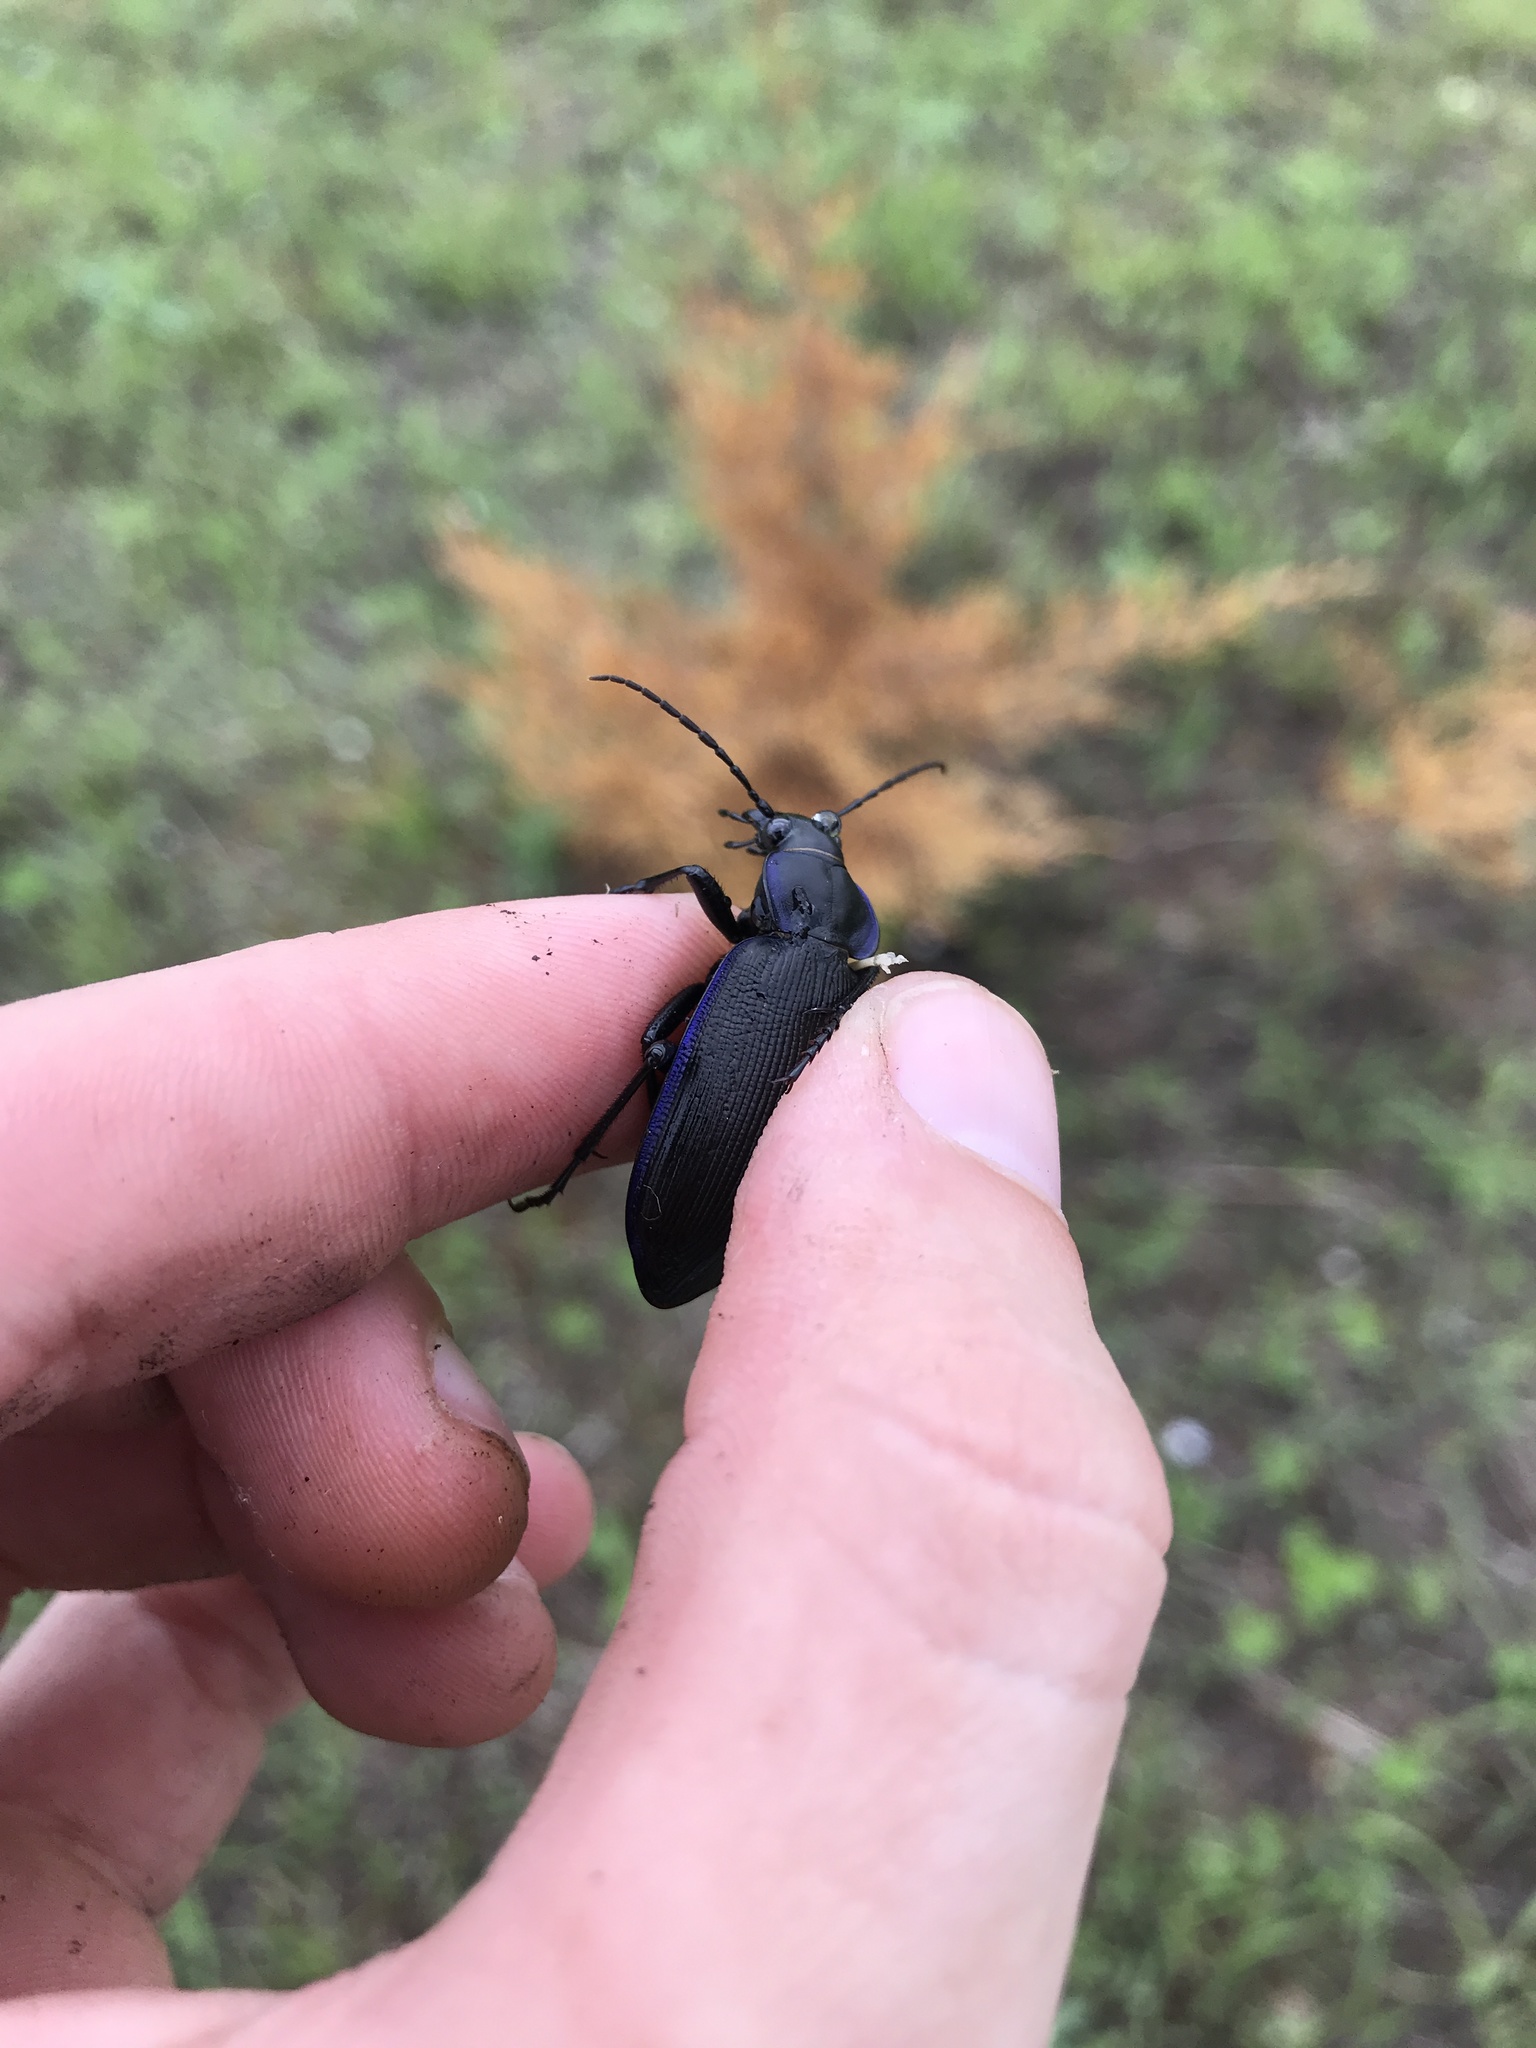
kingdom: Animalia
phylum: Arthropoda
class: Insecta
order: Coleoptera
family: Carabidae
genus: Calosoma
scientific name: Calosoma externum
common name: Narrow searcher beetle
